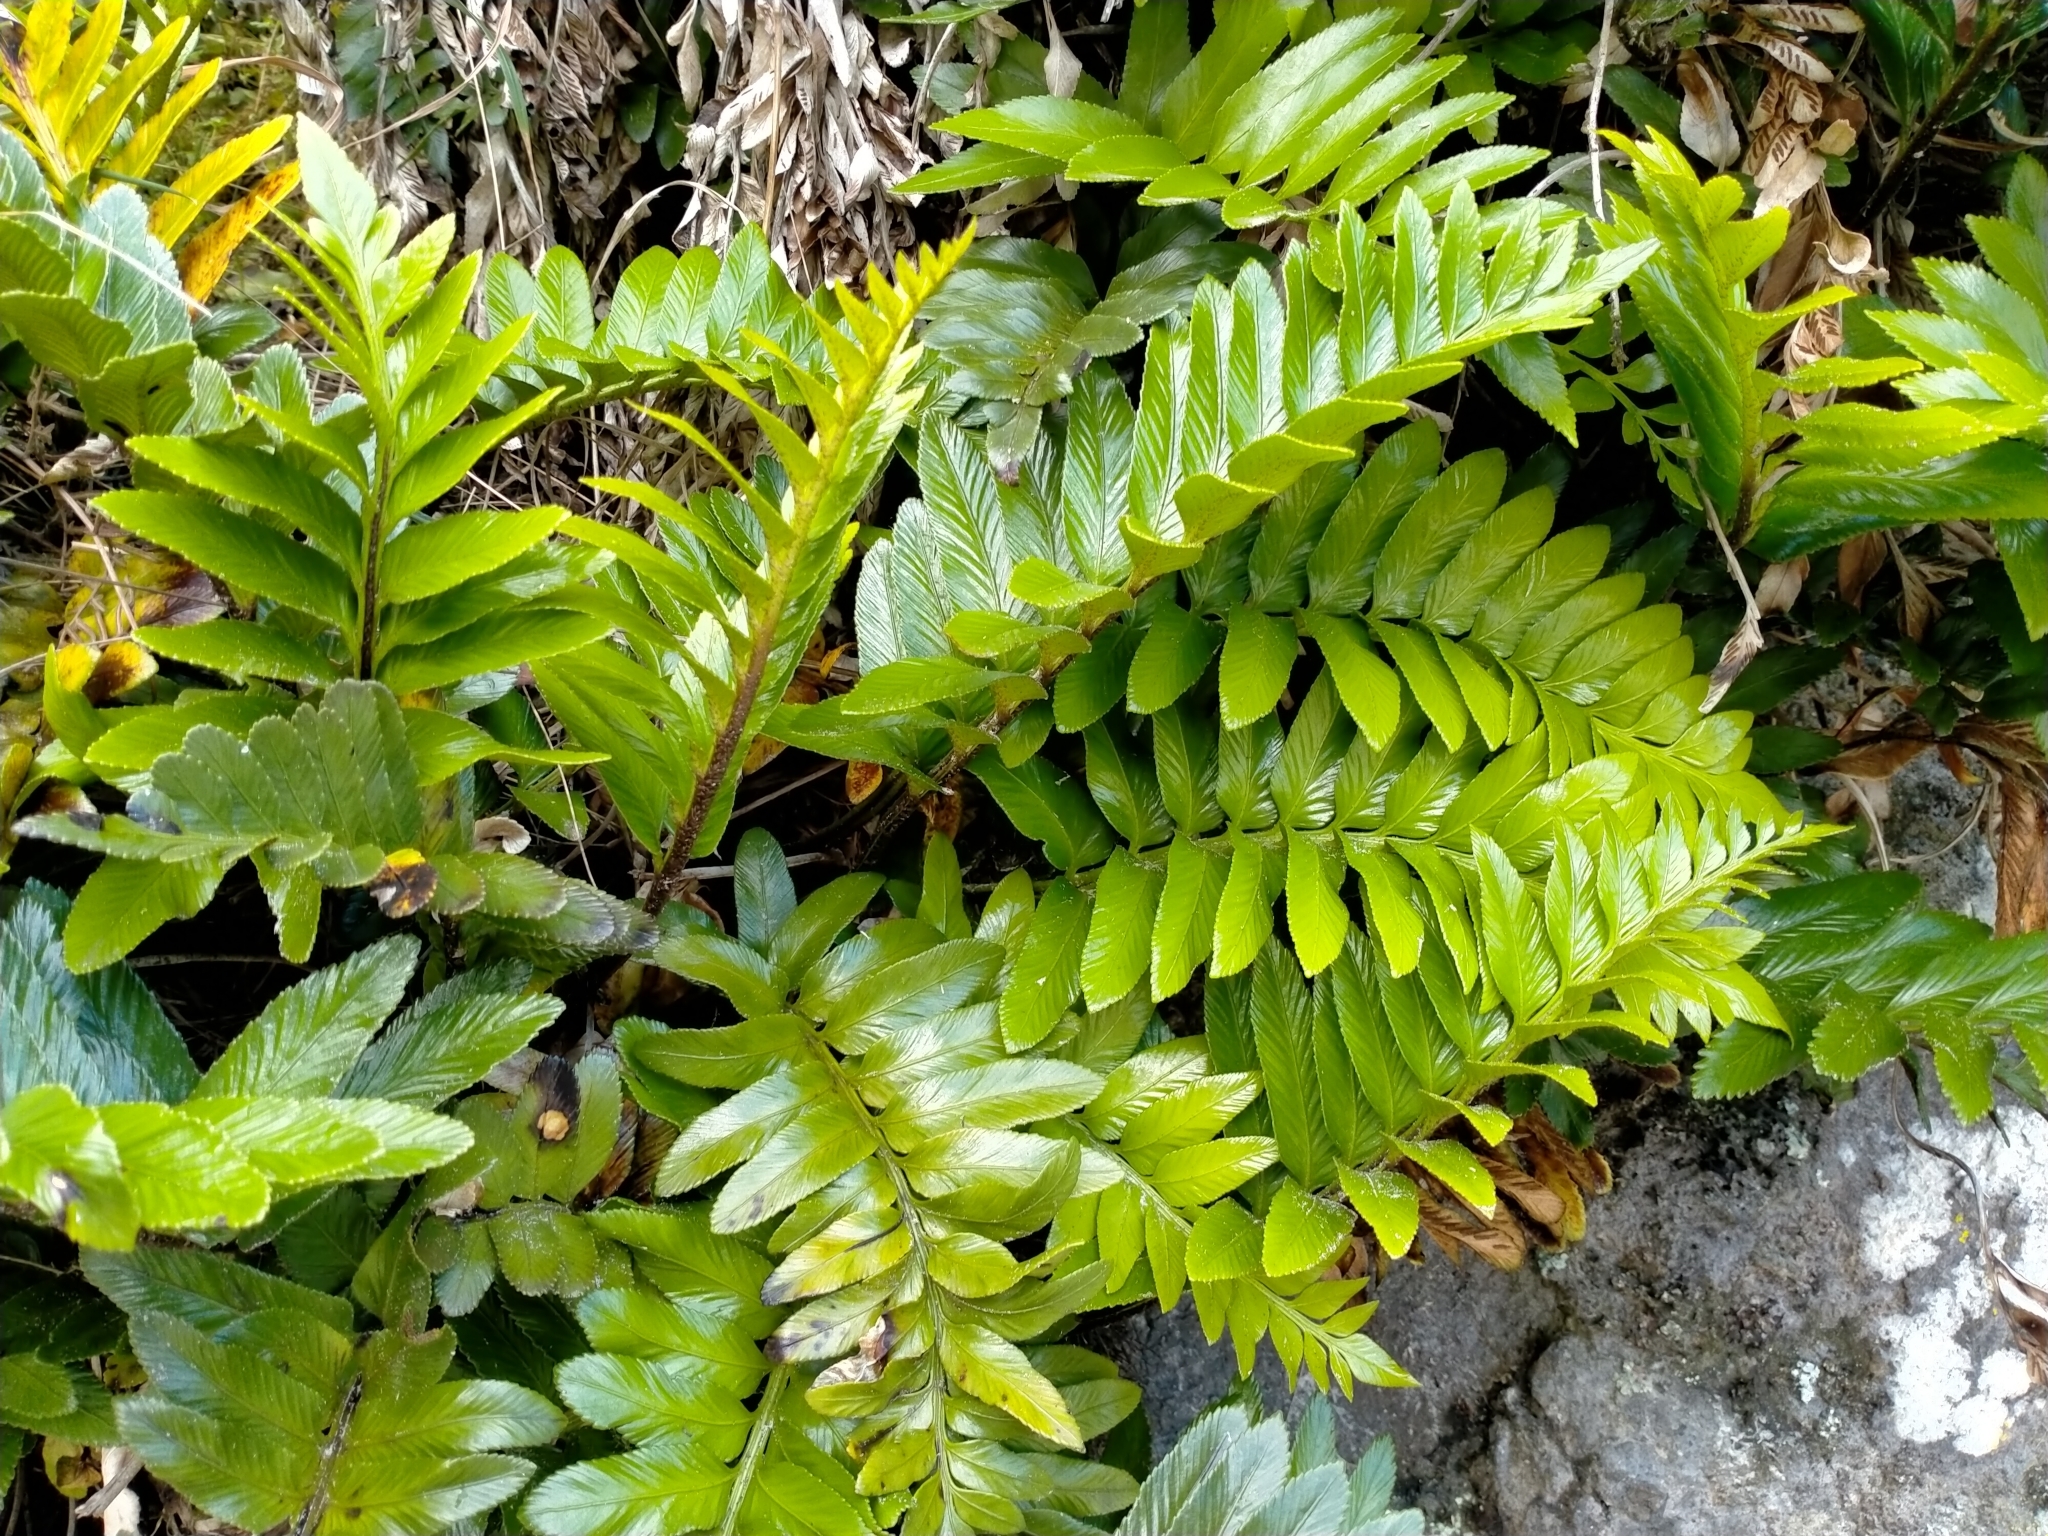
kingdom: Plantae
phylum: Tracheophyta
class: Polypodiopsida
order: Polypodiales
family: Aspleniaceae
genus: Asplenium
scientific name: Asplenium obtusatum
